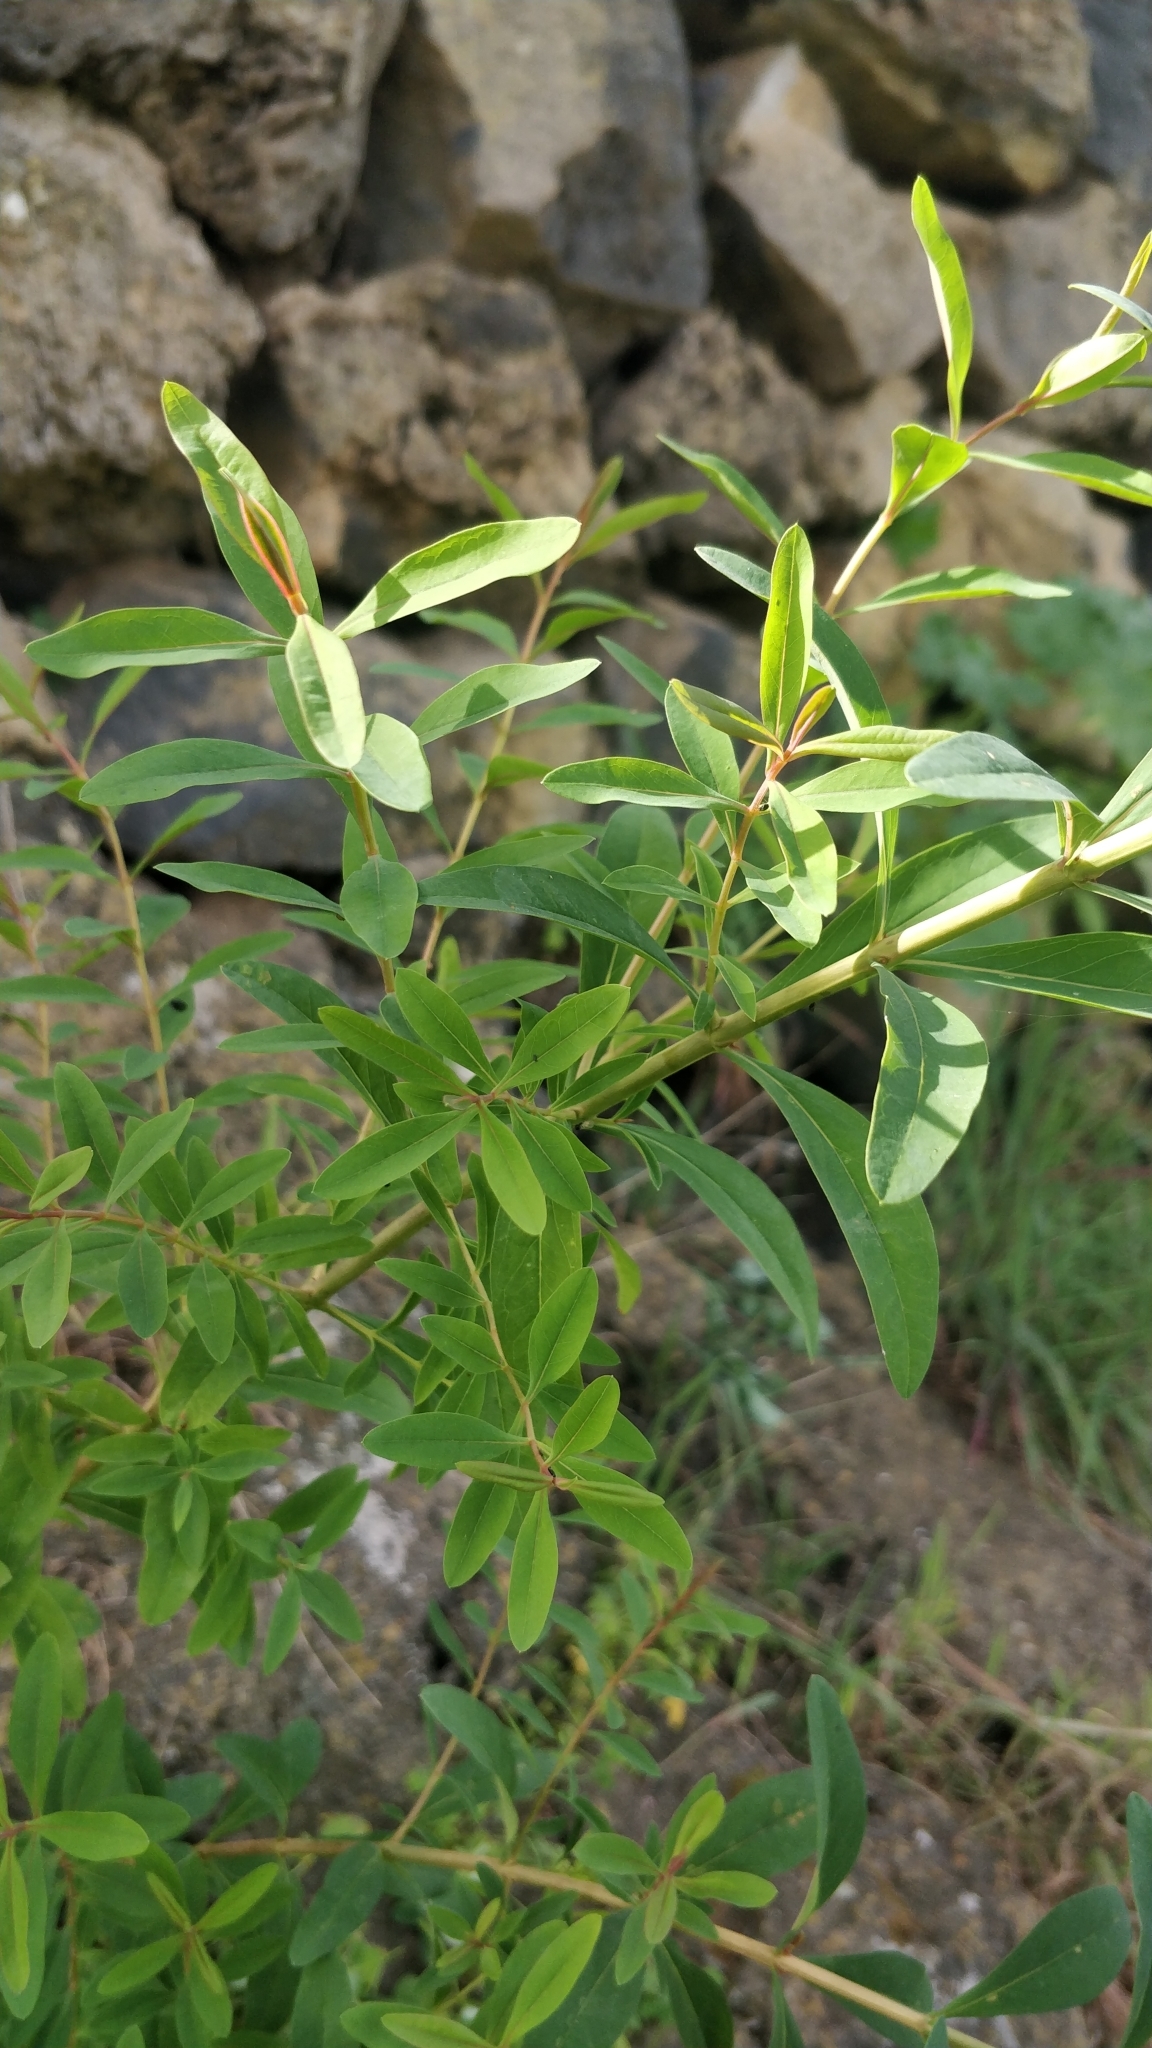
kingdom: Plantae
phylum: Tracheophyta
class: Magnoliopsida
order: Malpighiales
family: Hypericaceae
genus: Hypericum
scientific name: Hypericum canariense
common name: Canary island st. johnswort
